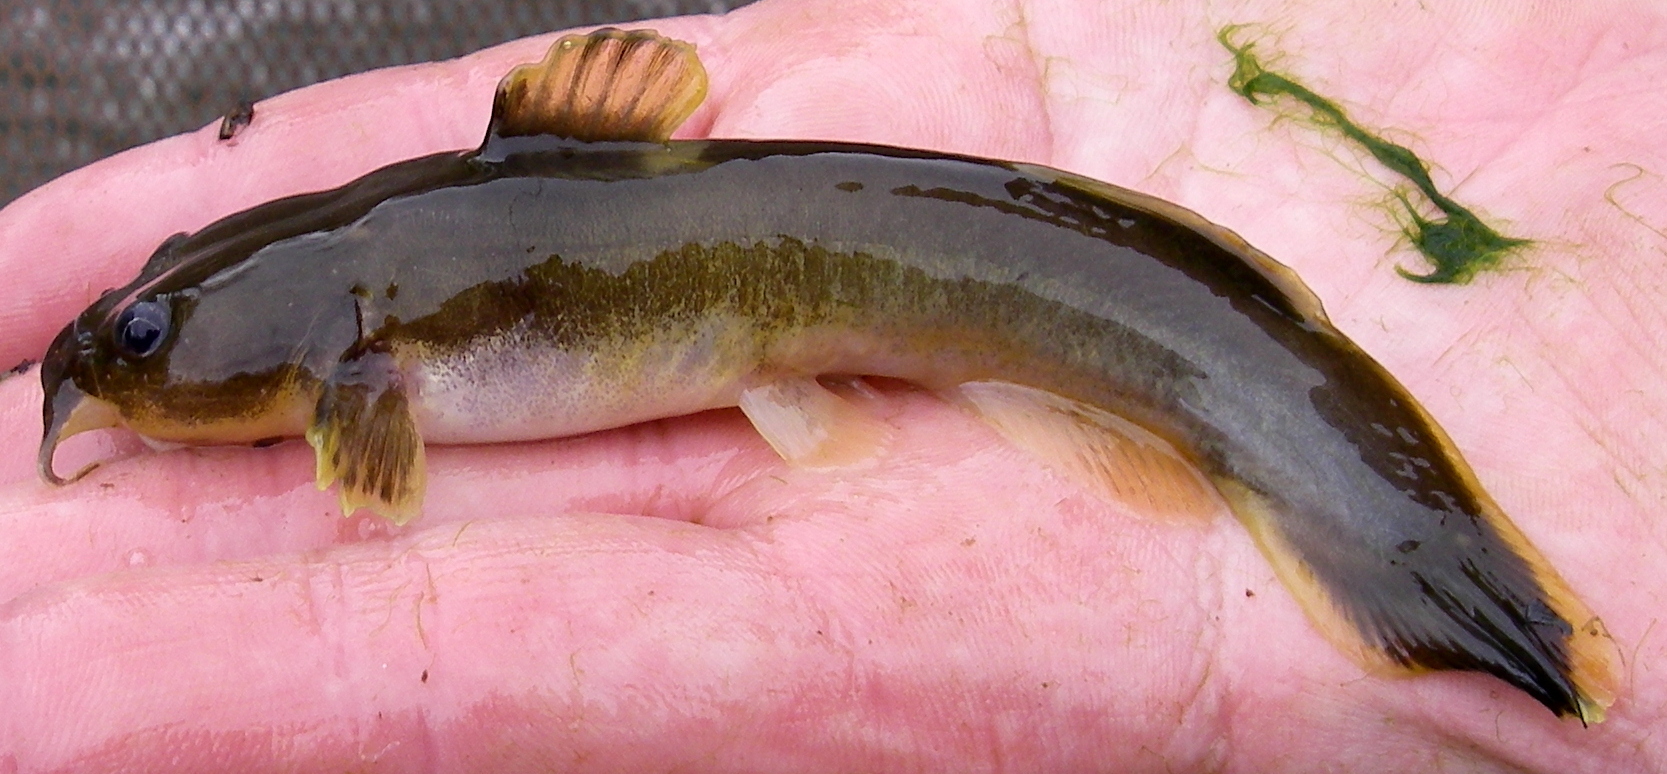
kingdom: Animalia
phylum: Chordata
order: Siluriformes
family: Ictaluridae
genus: Noturus
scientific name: Noturus flavus
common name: Stonecat
